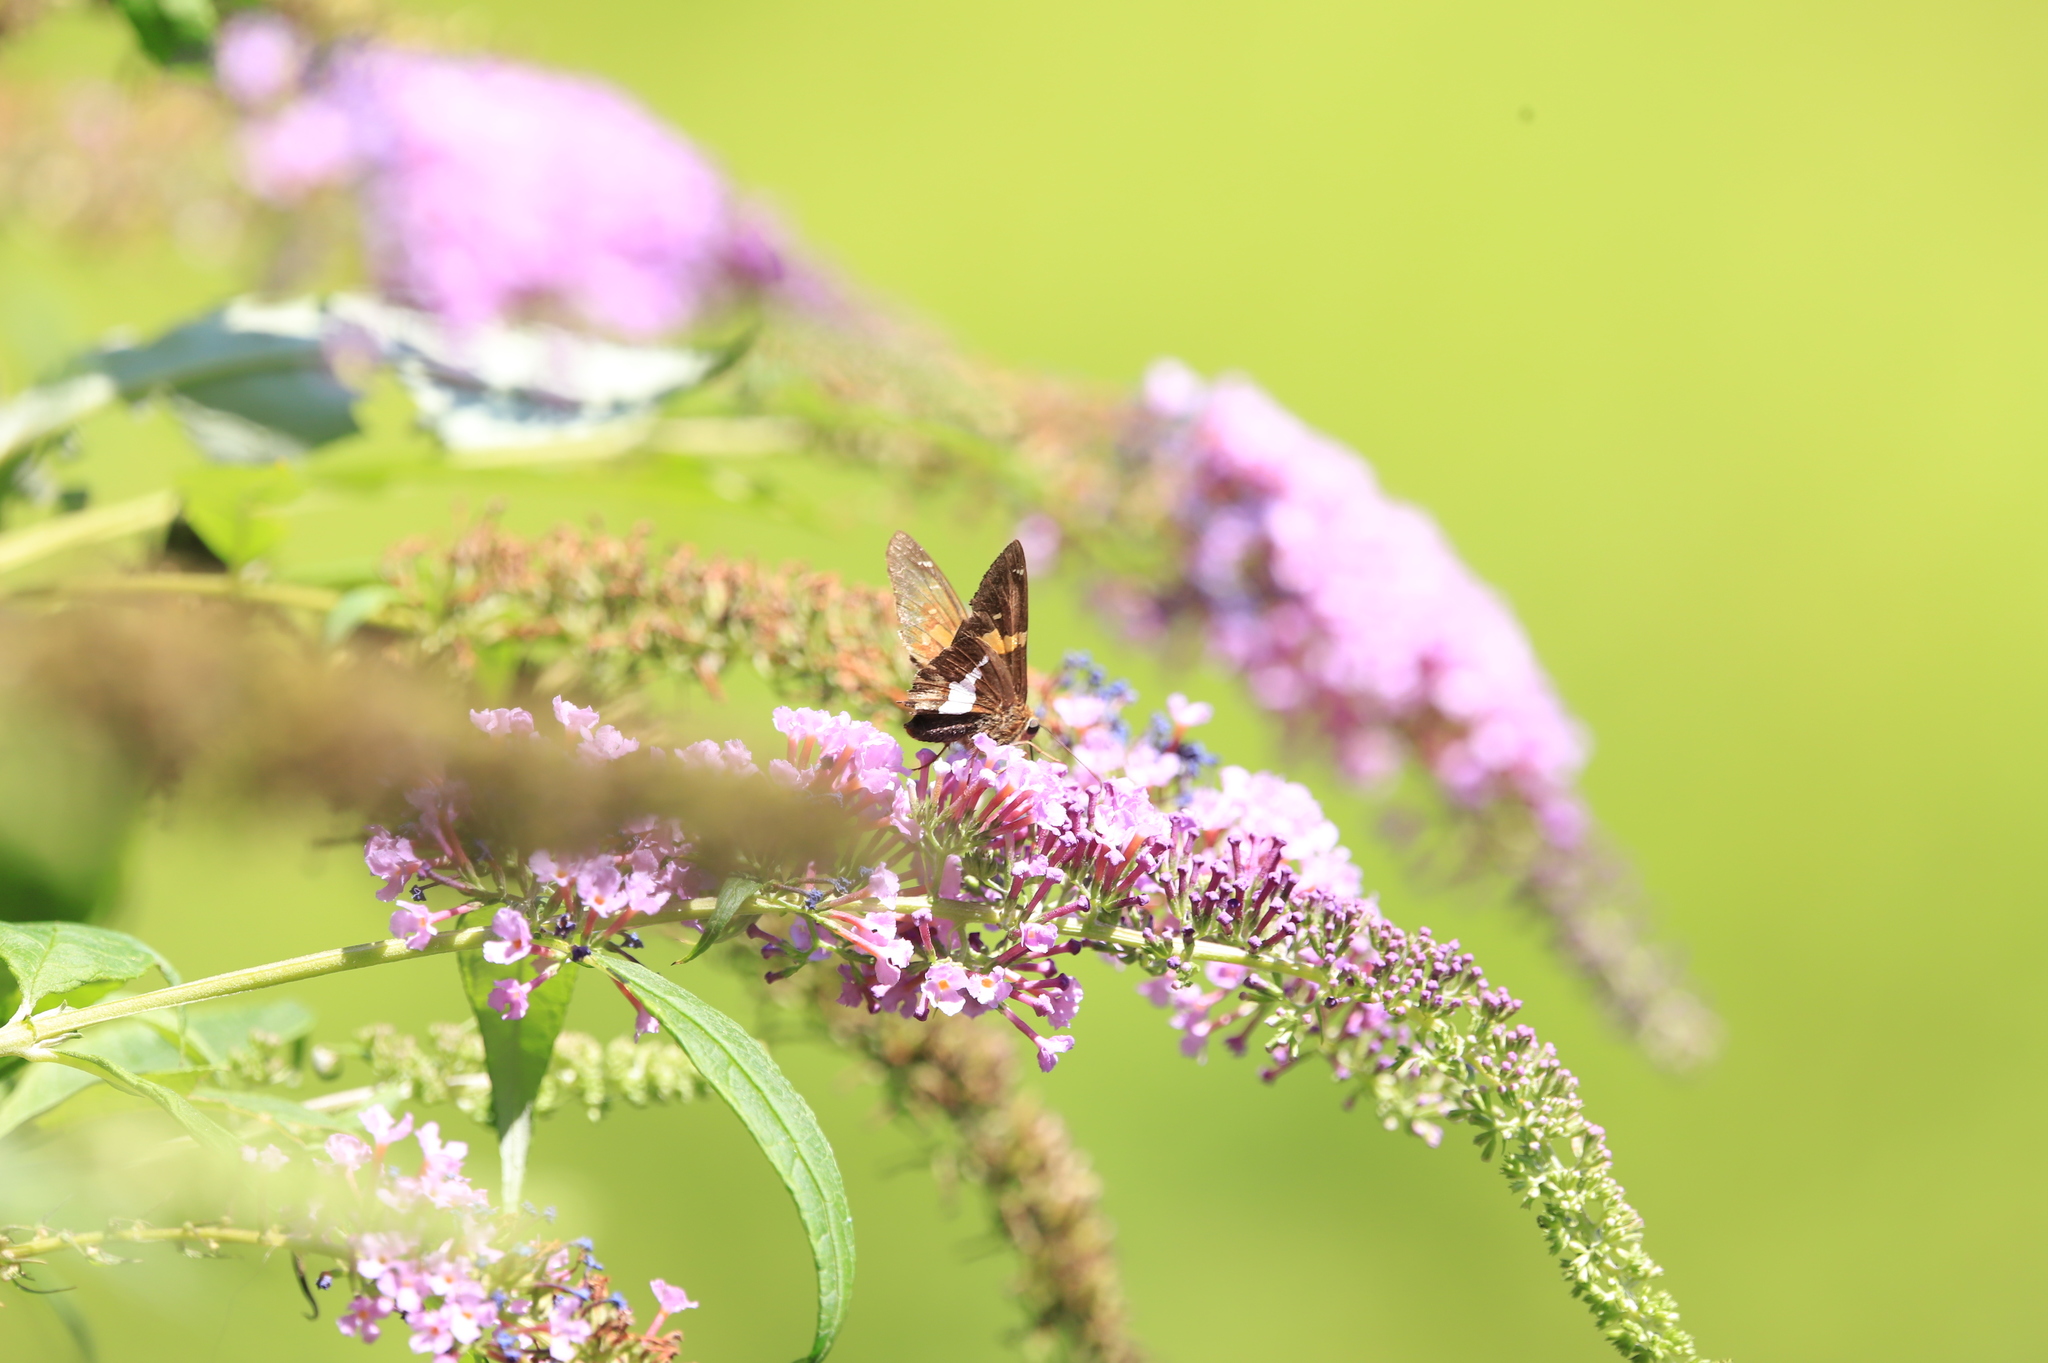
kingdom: Animalia
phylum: Arthropoda
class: Insecta
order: Lepidoptera
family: Hesperiidae
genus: Epargyreus
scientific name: Epargyreus clarus
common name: Silver-spotted skipper
